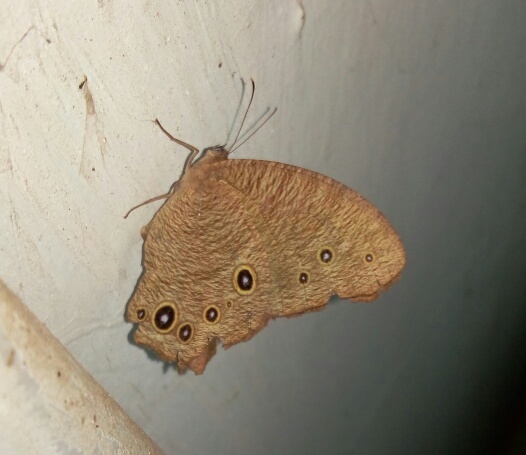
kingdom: Animalia
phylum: Arthropoda
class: Insecta
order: Lepidoptera
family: Nymphalidae
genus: Melanitis
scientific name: Melanitis leda
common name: Twilight brown
